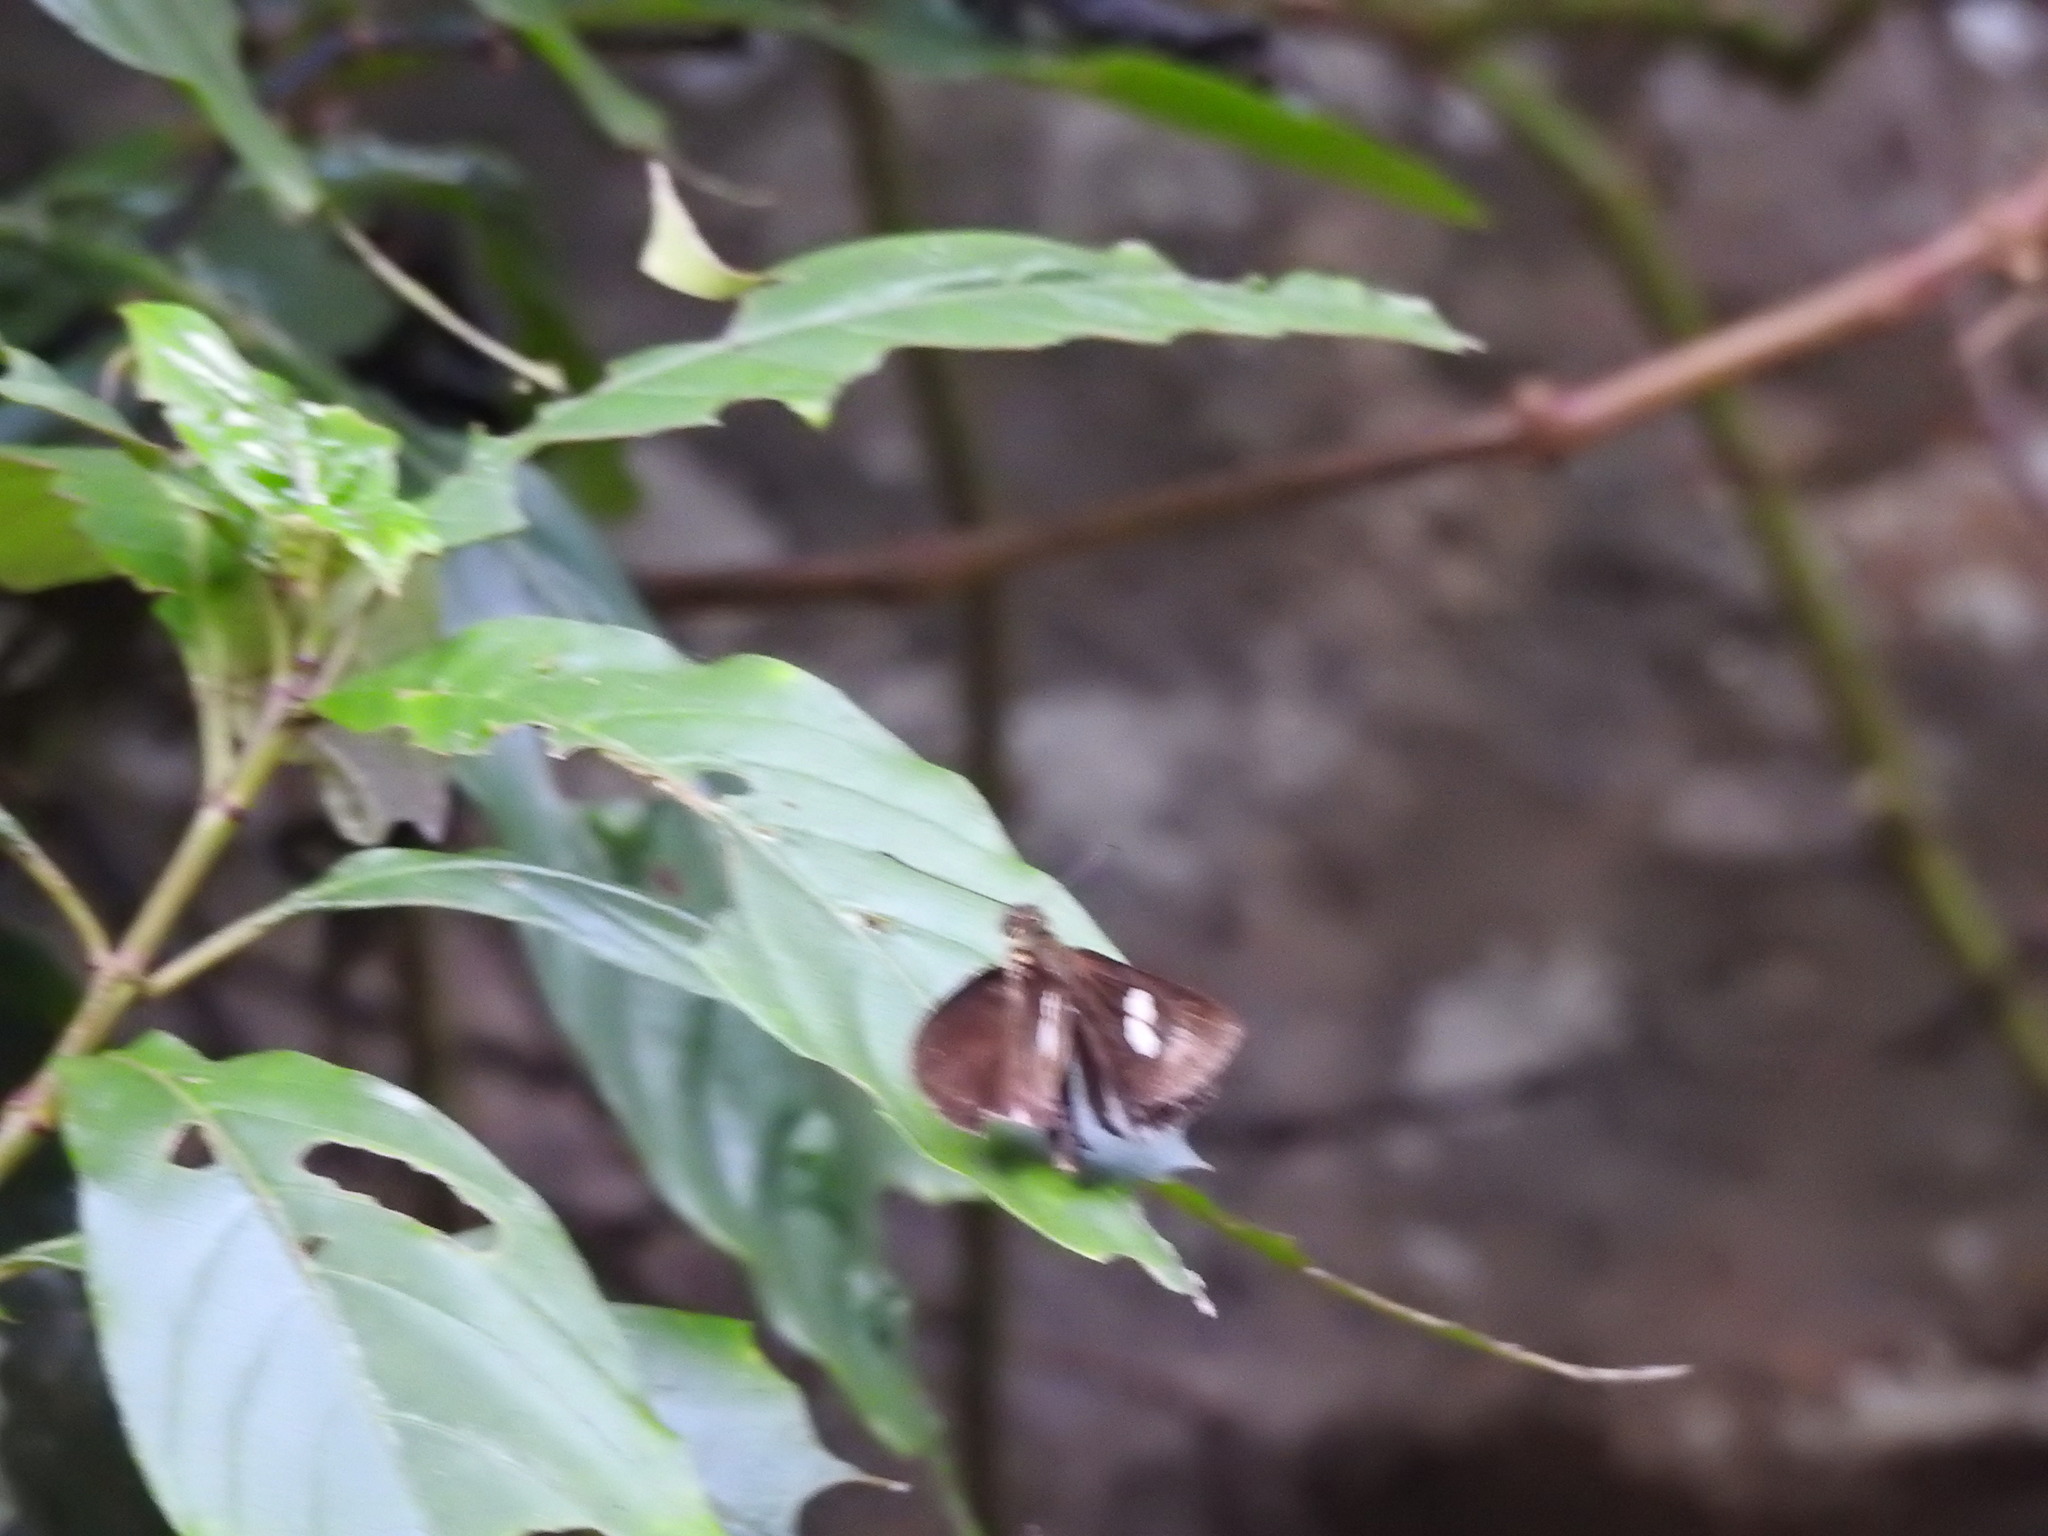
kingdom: Animalia
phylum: Arthropoda
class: Insecta
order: Lepidoptera
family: Hesperiidae
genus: Quedara
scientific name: Quedara basiflava
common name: Golden flitter
